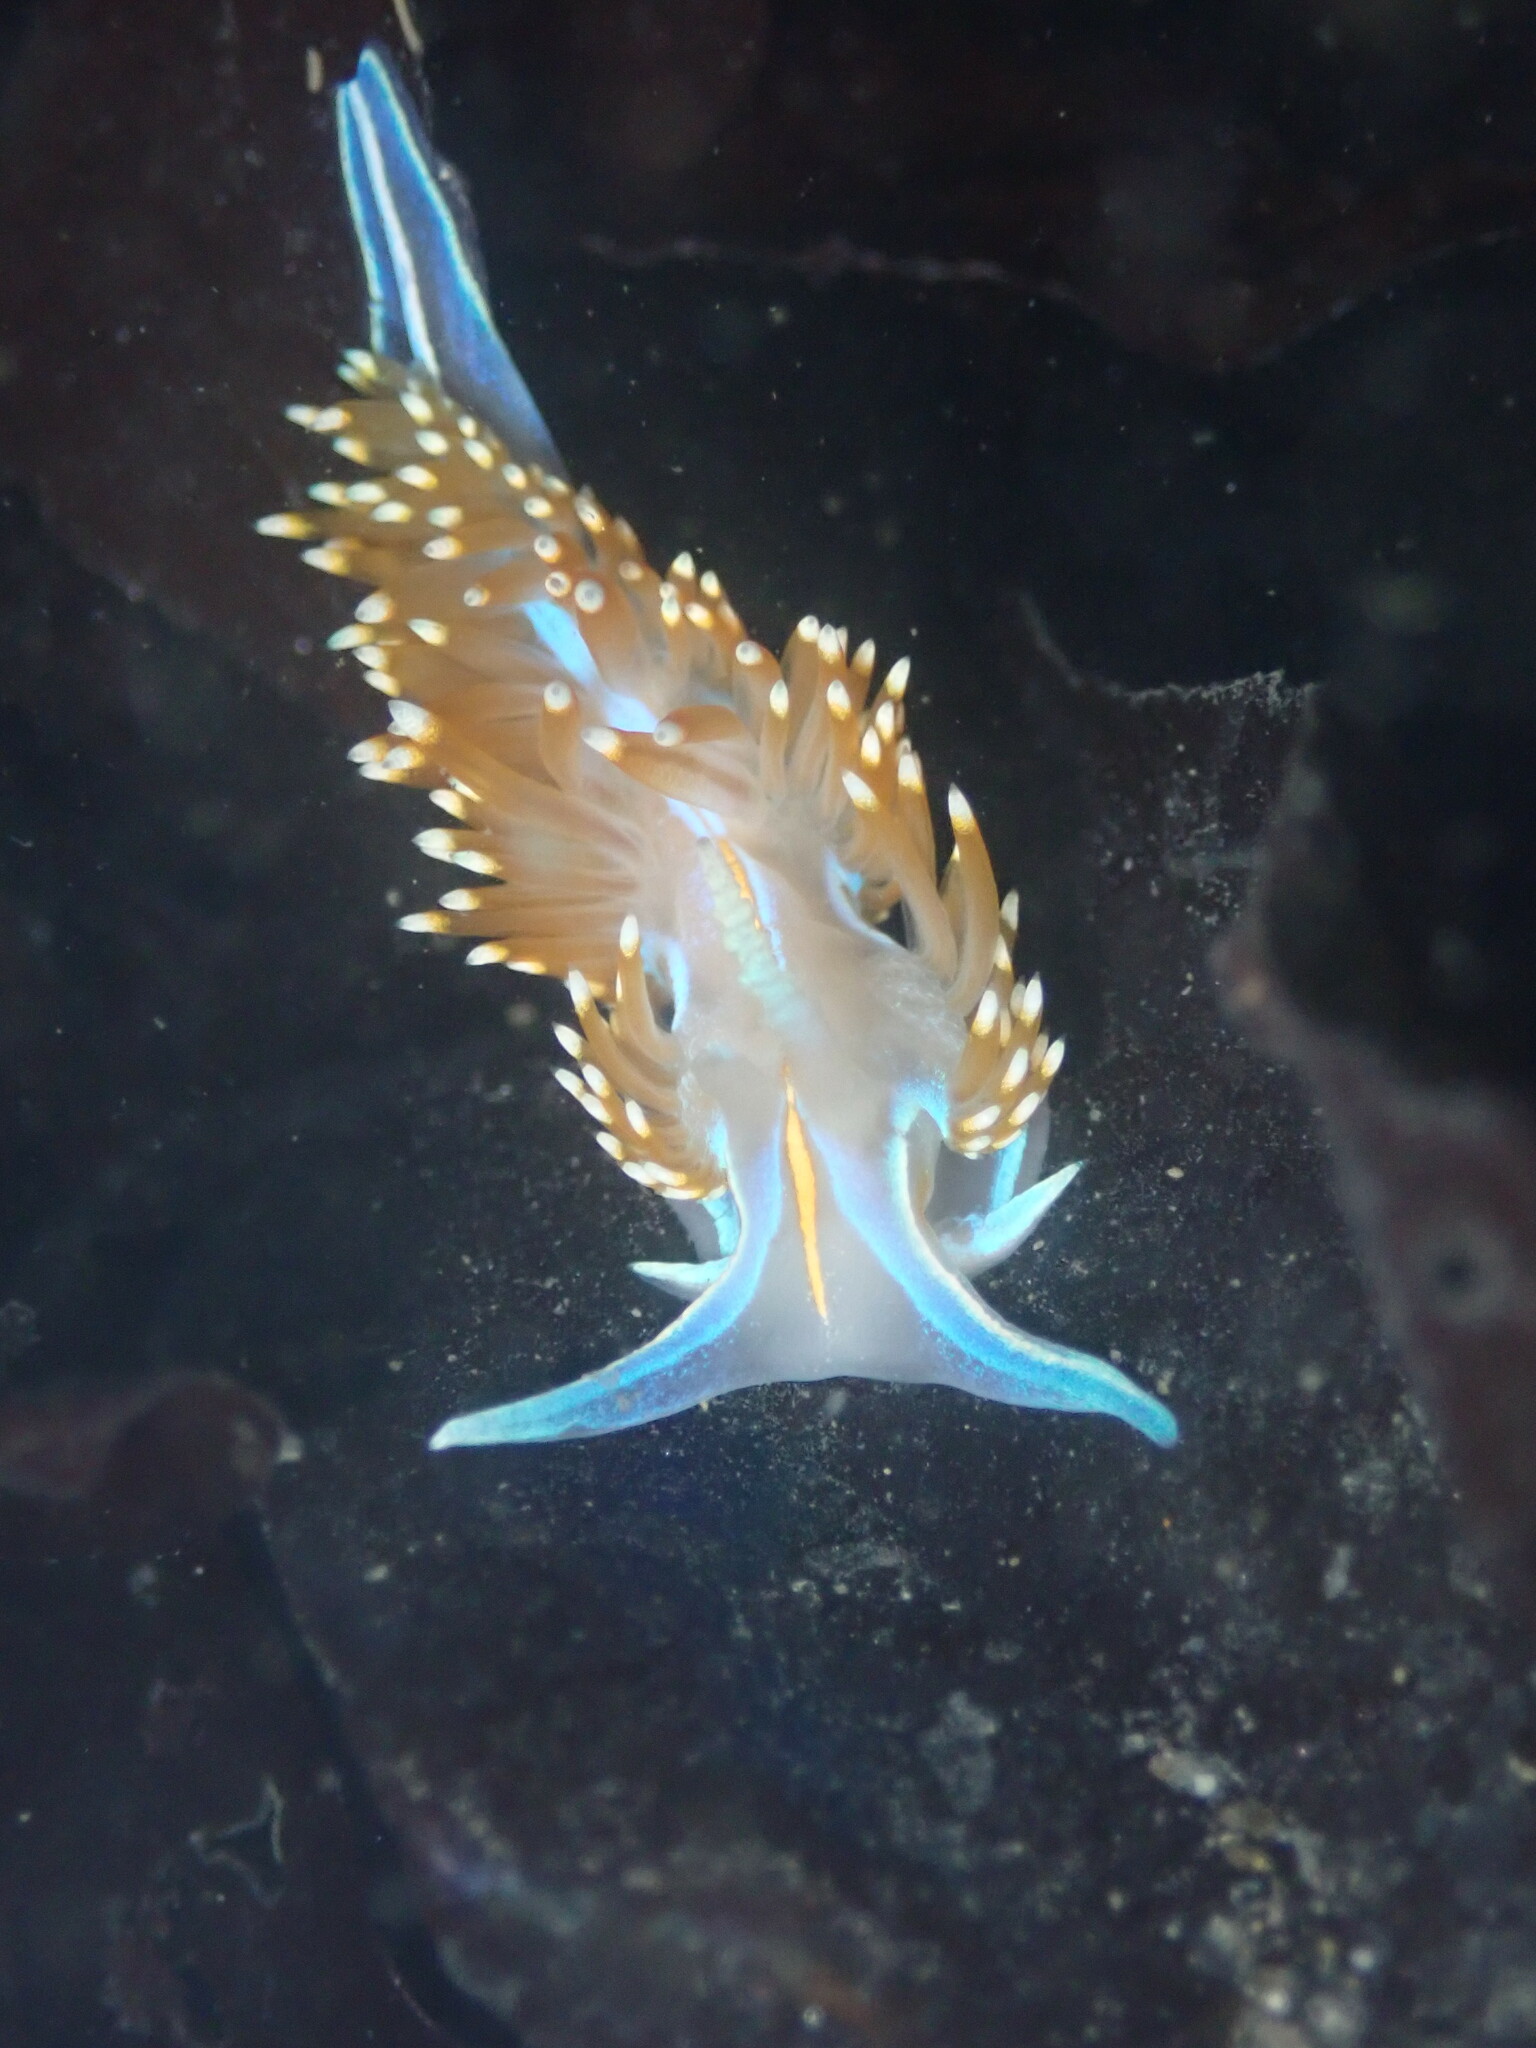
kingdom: Animalia
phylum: Mollusca
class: Gastropoda
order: Nudibranchia
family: Myrrhinidae
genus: Hermissenda
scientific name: Hermissenda opalescens
